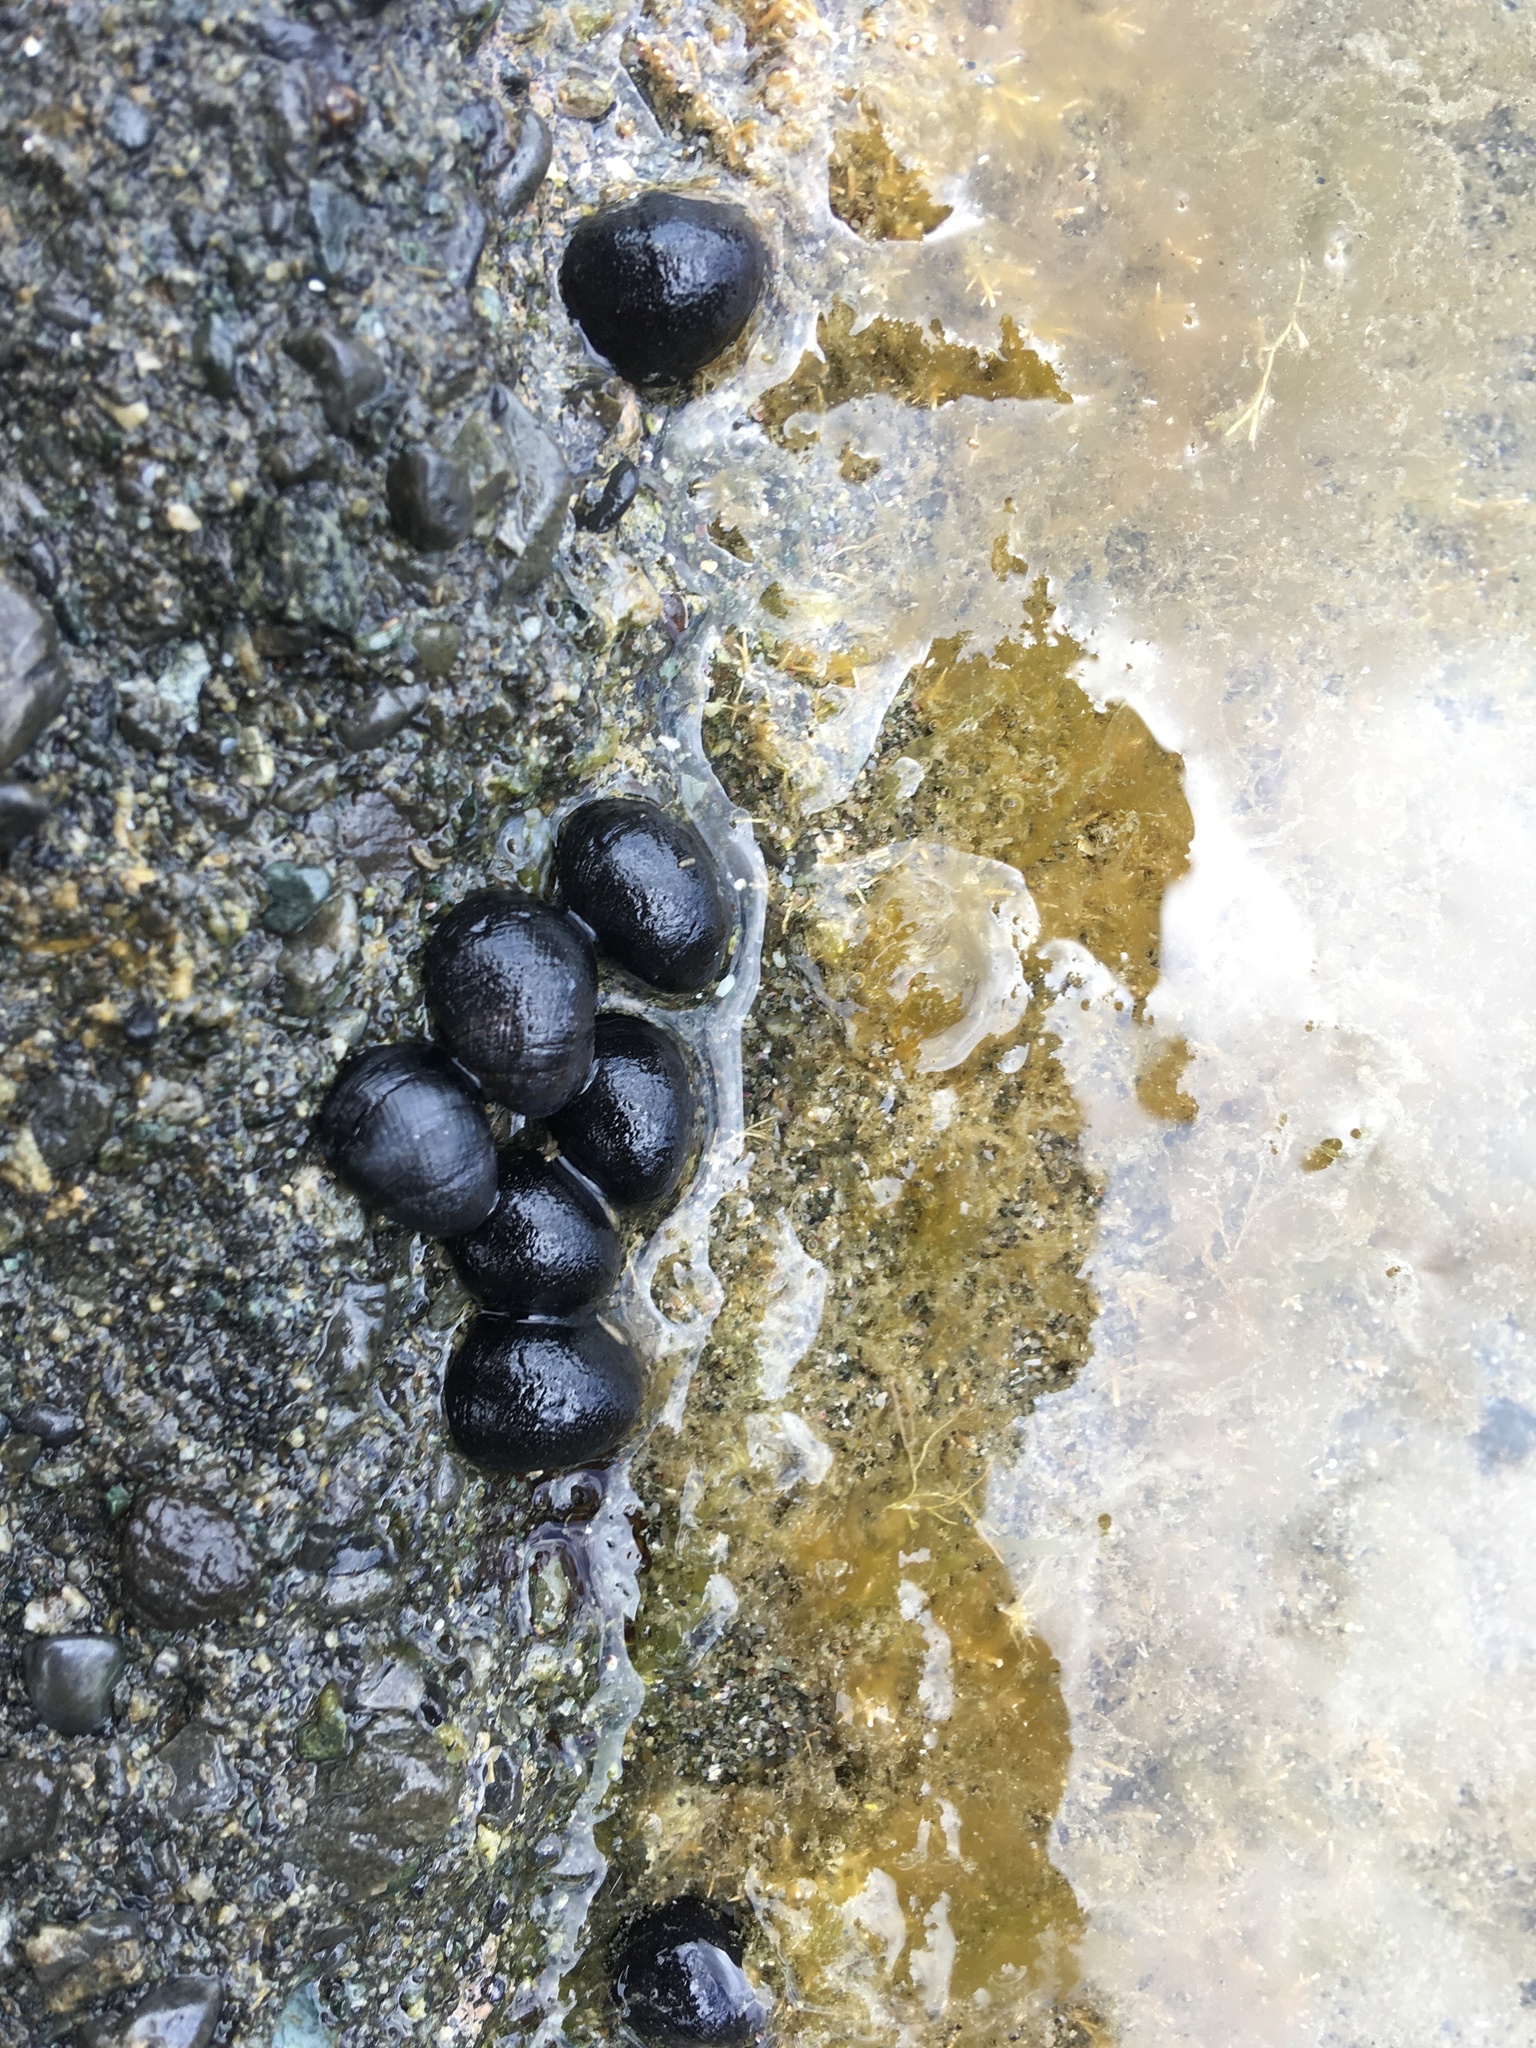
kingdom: Animalia
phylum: Mollusca
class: Gastropoda
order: Cycloneritida
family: Neritidae
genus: Nerita
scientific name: Nerita melanotragus
